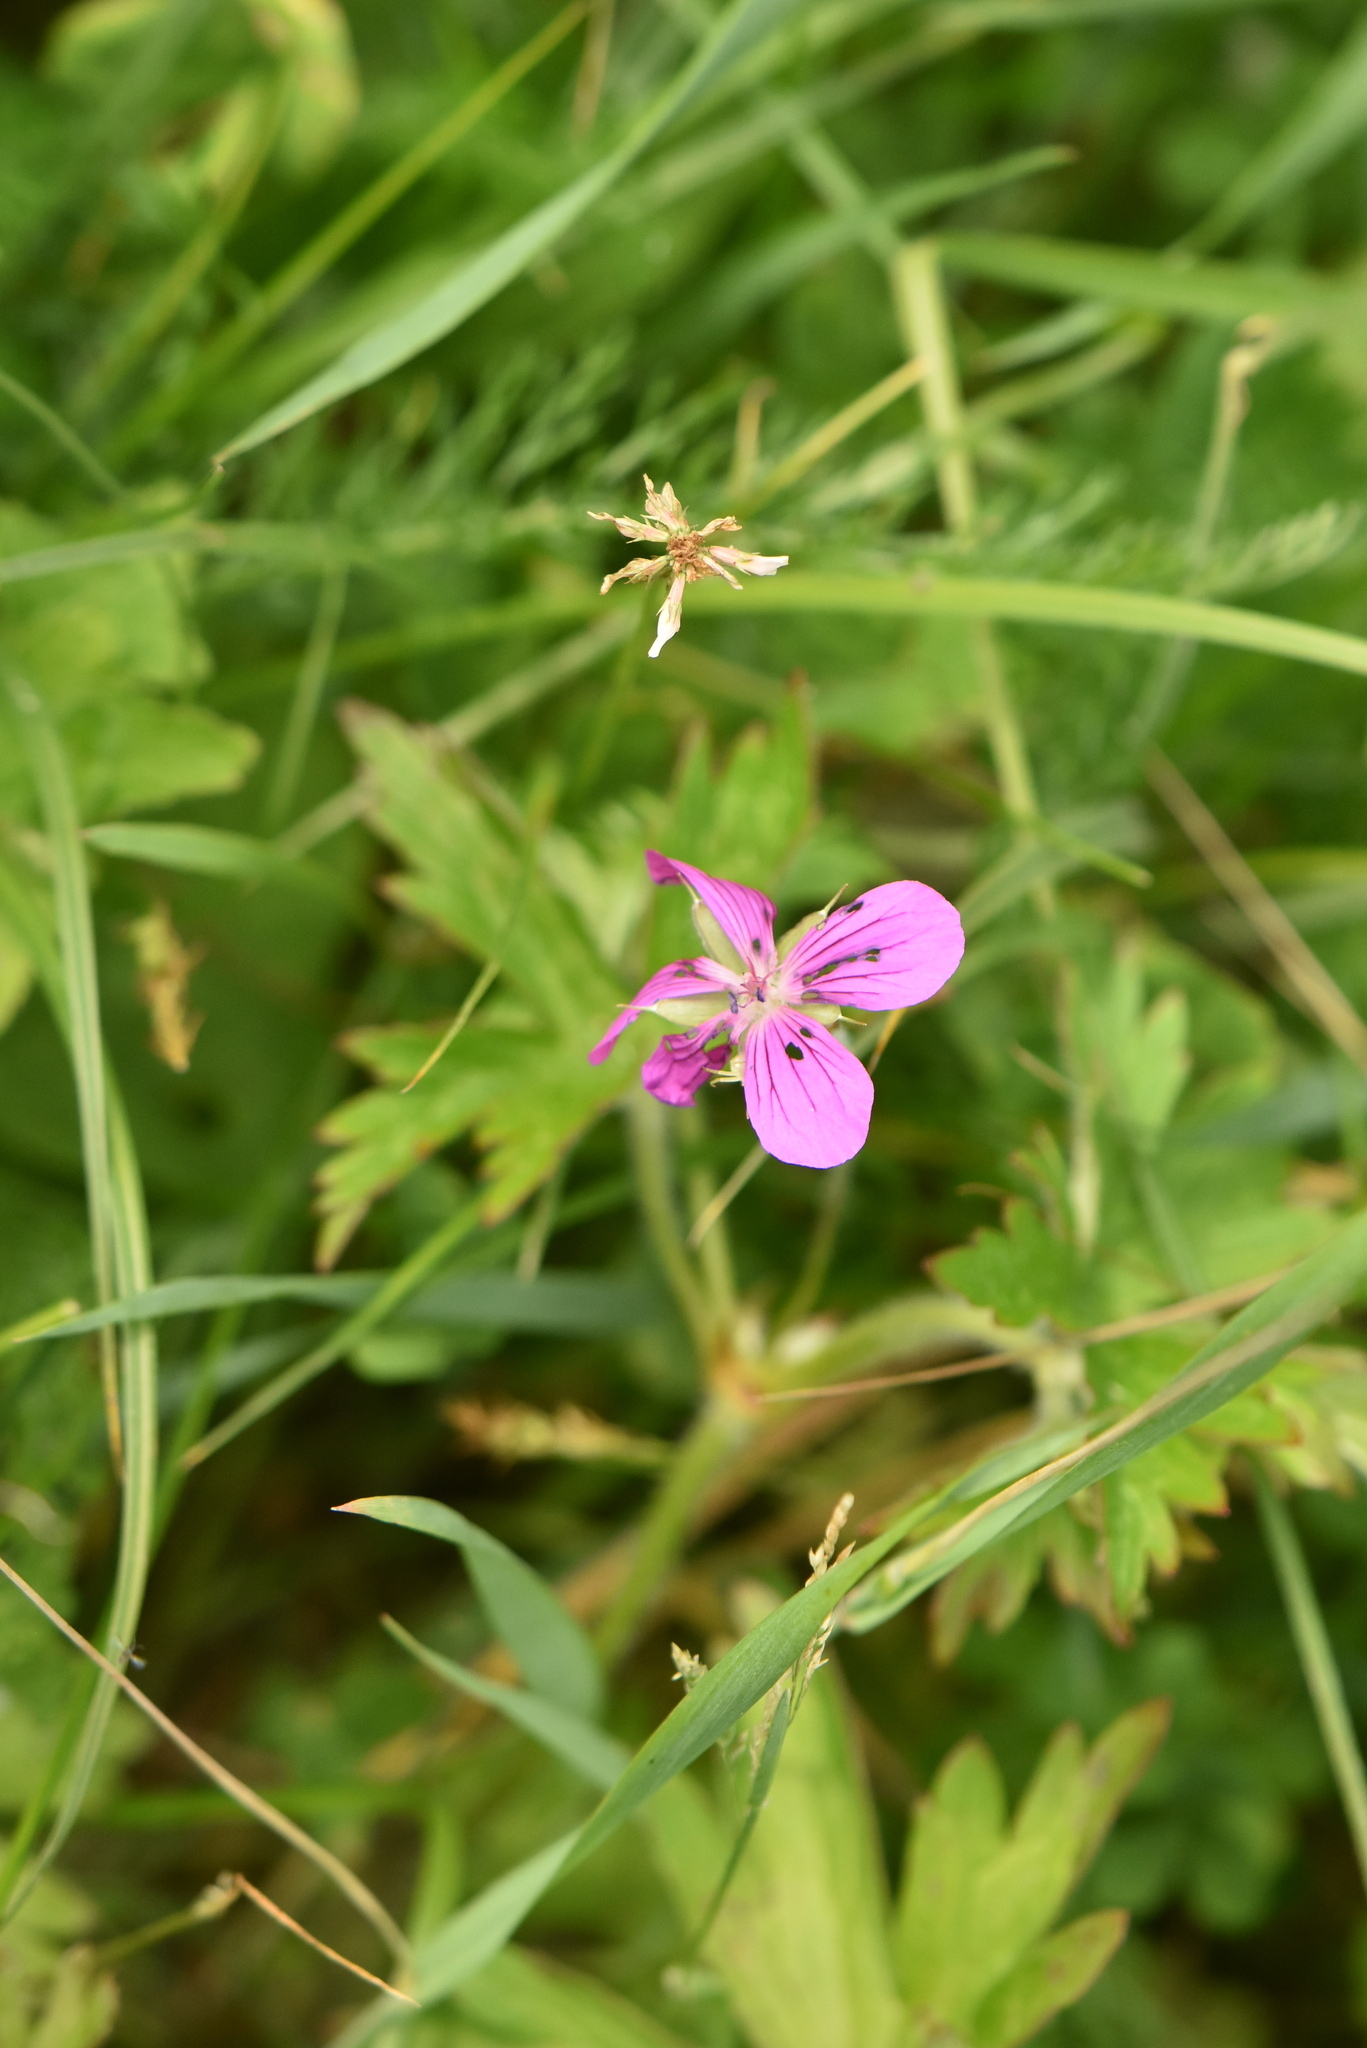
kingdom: Plantae
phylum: Tracheophyta
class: Magnoliopsida
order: Geraniales
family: Geraniaceae
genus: Geranium
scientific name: Geranium palustre
